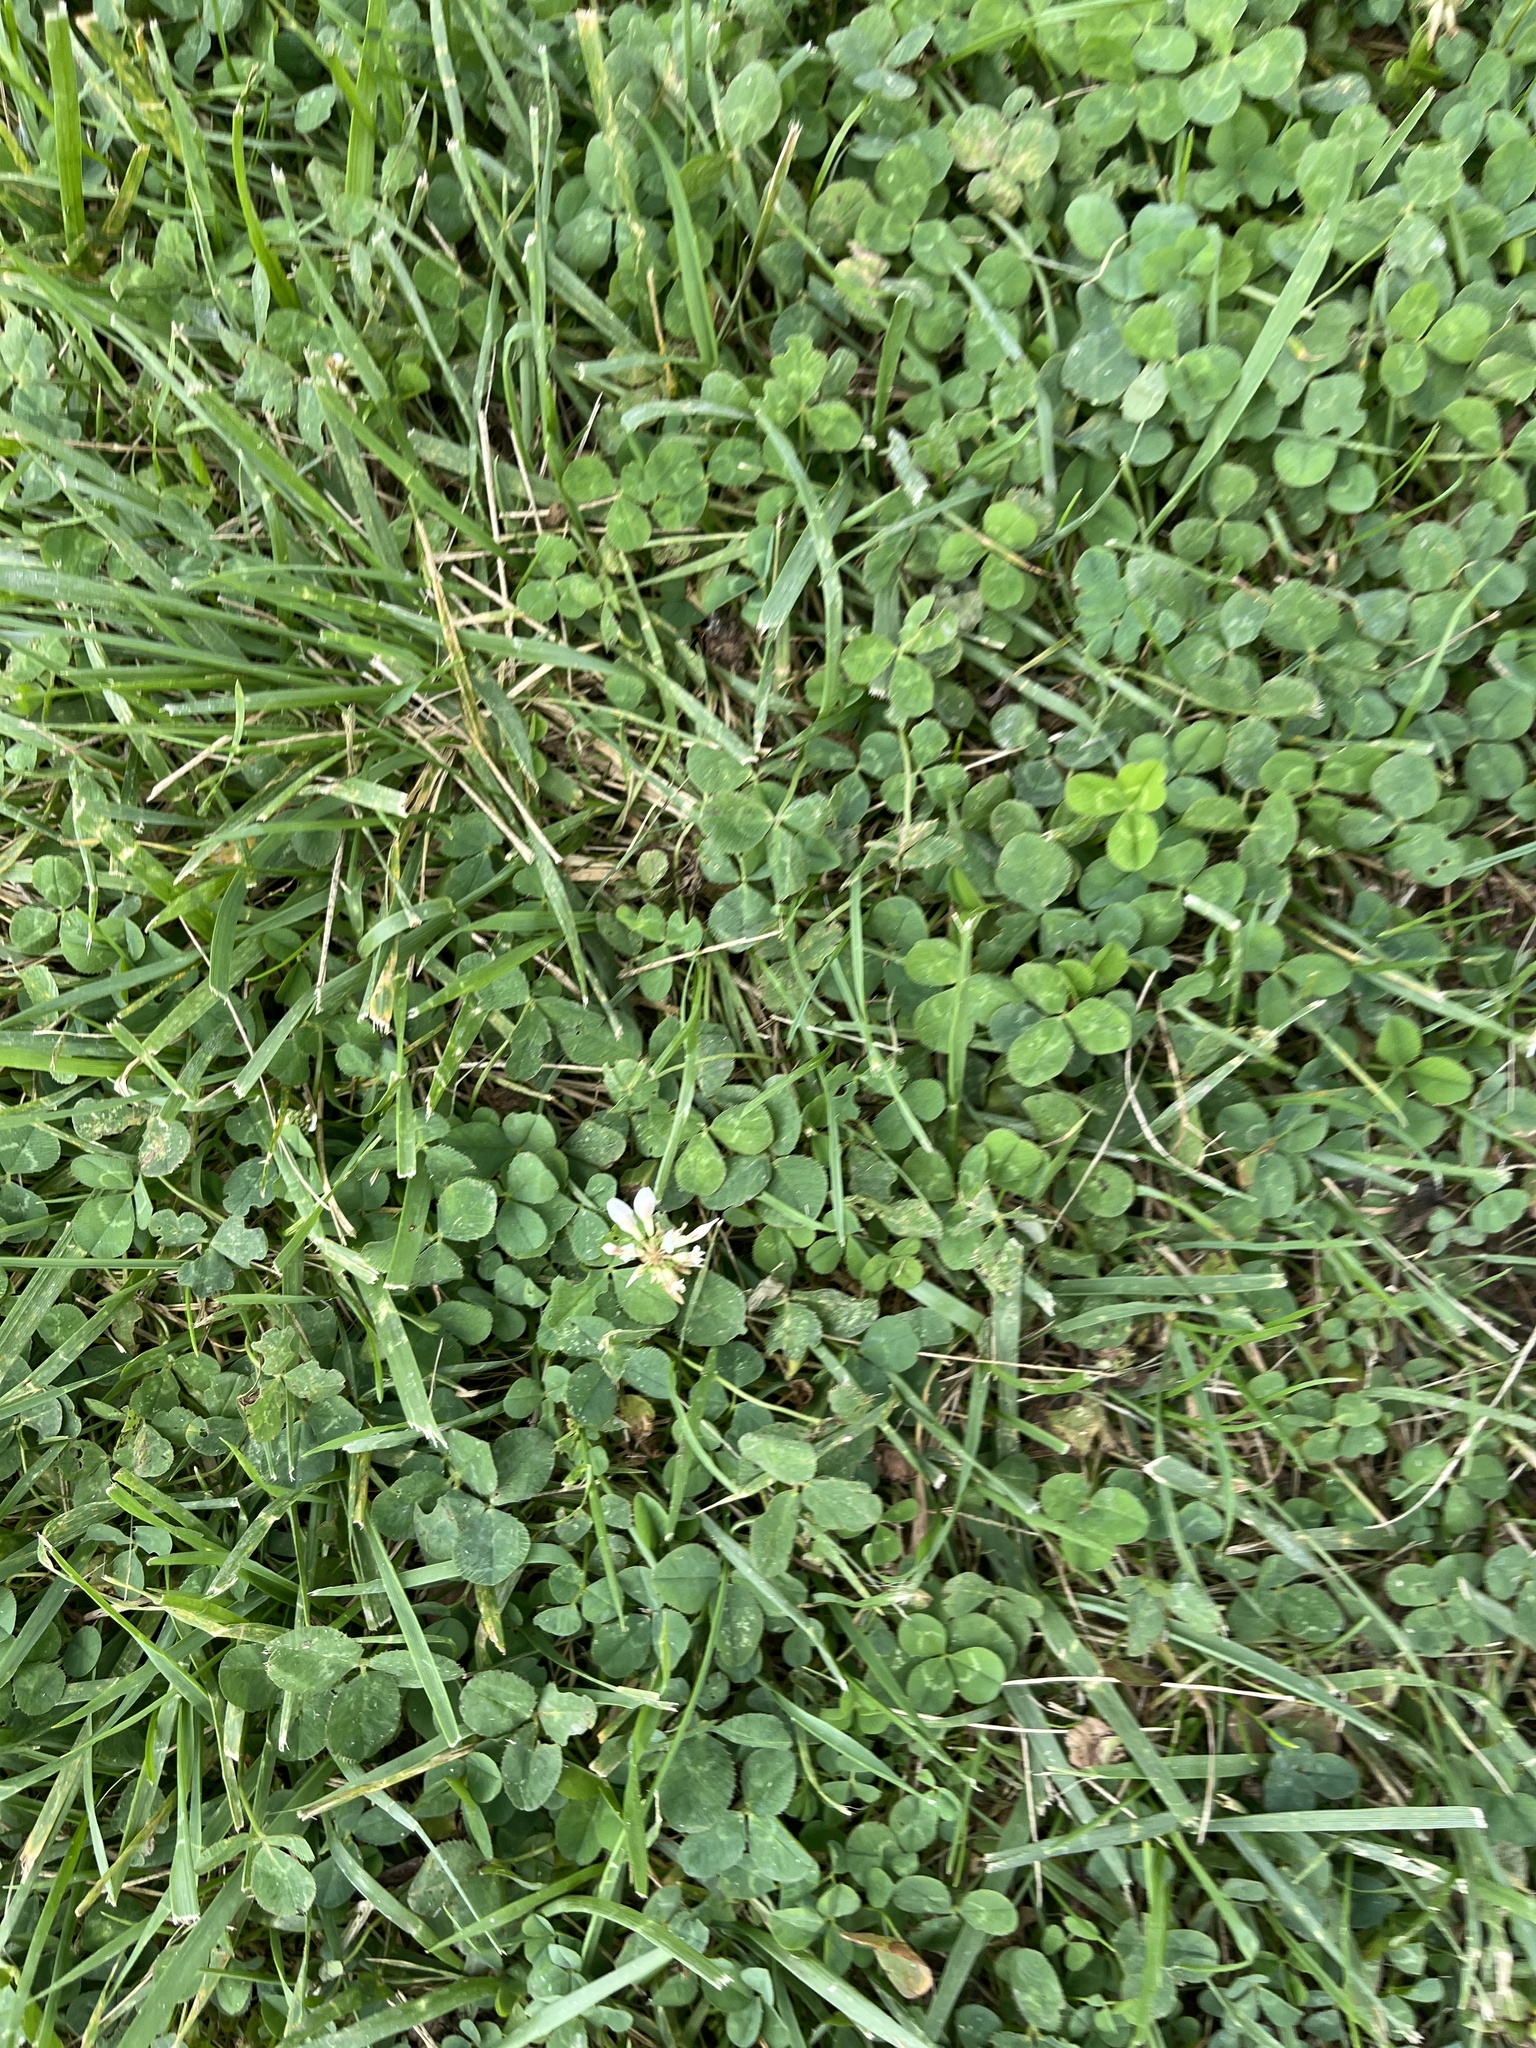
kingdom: Plantae
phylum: Tracheophyta
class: Magnoliopsida
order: Fabales
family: Fabaceae
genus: Trifolium
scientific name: Trifolium repens
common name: White clover
